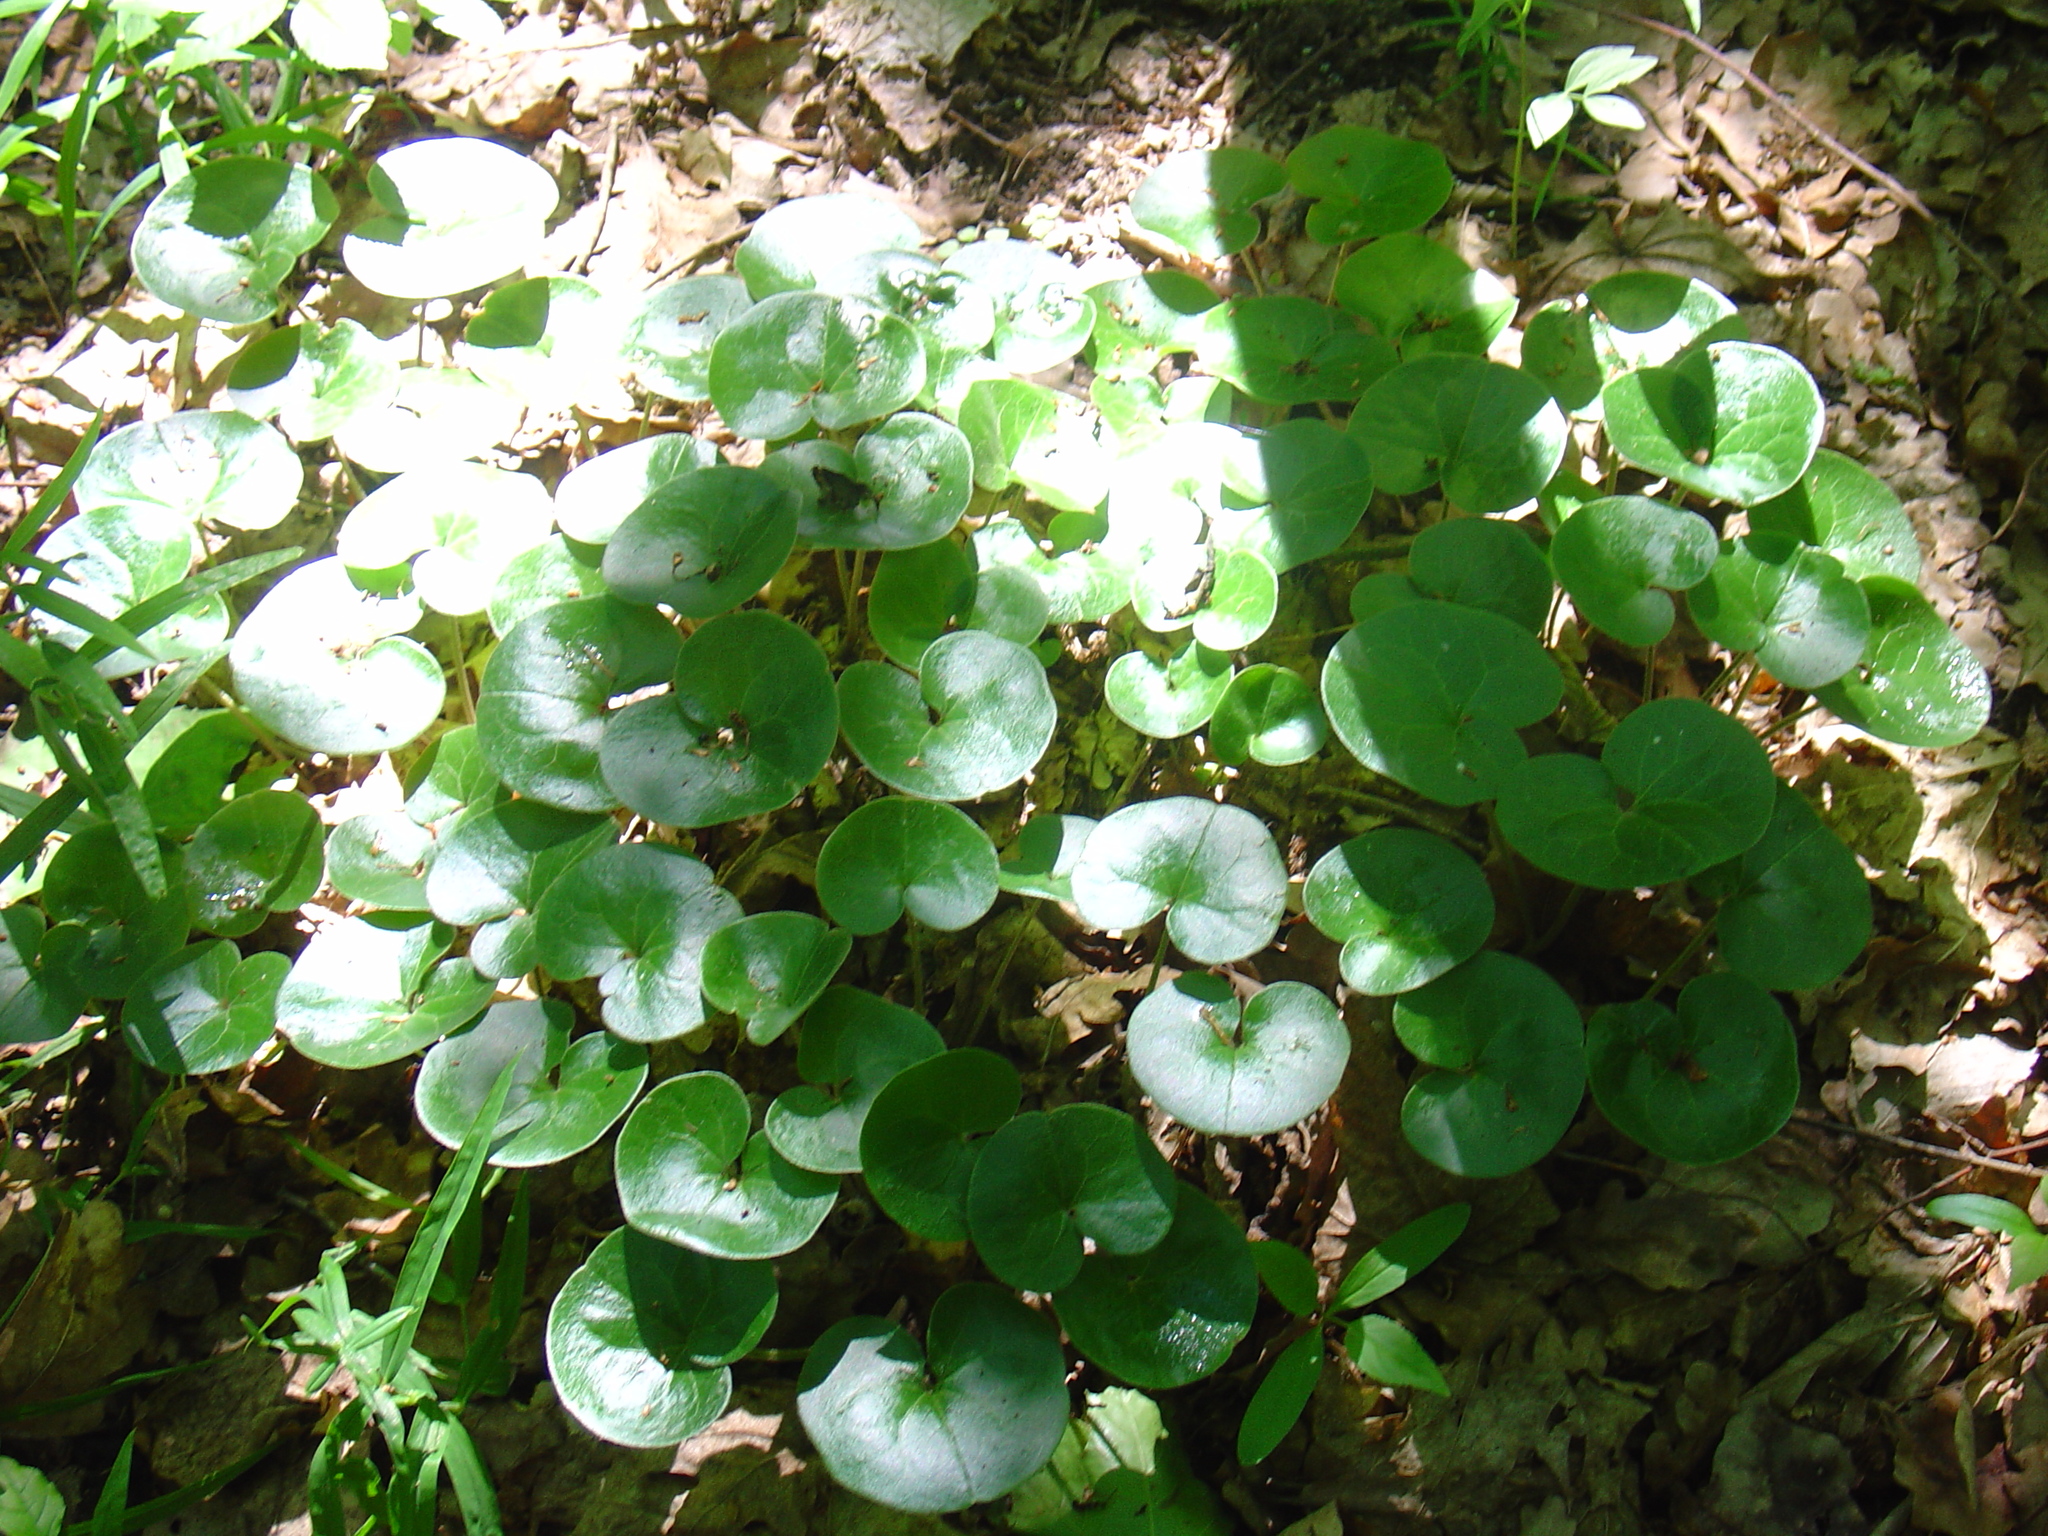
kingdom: Plantae
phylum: Tracheophyta
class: Magnoliopsida
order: Piperales
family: Aristolochiaceae
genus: Asarum
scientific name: Asarum europaeum
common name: Asarabacca
